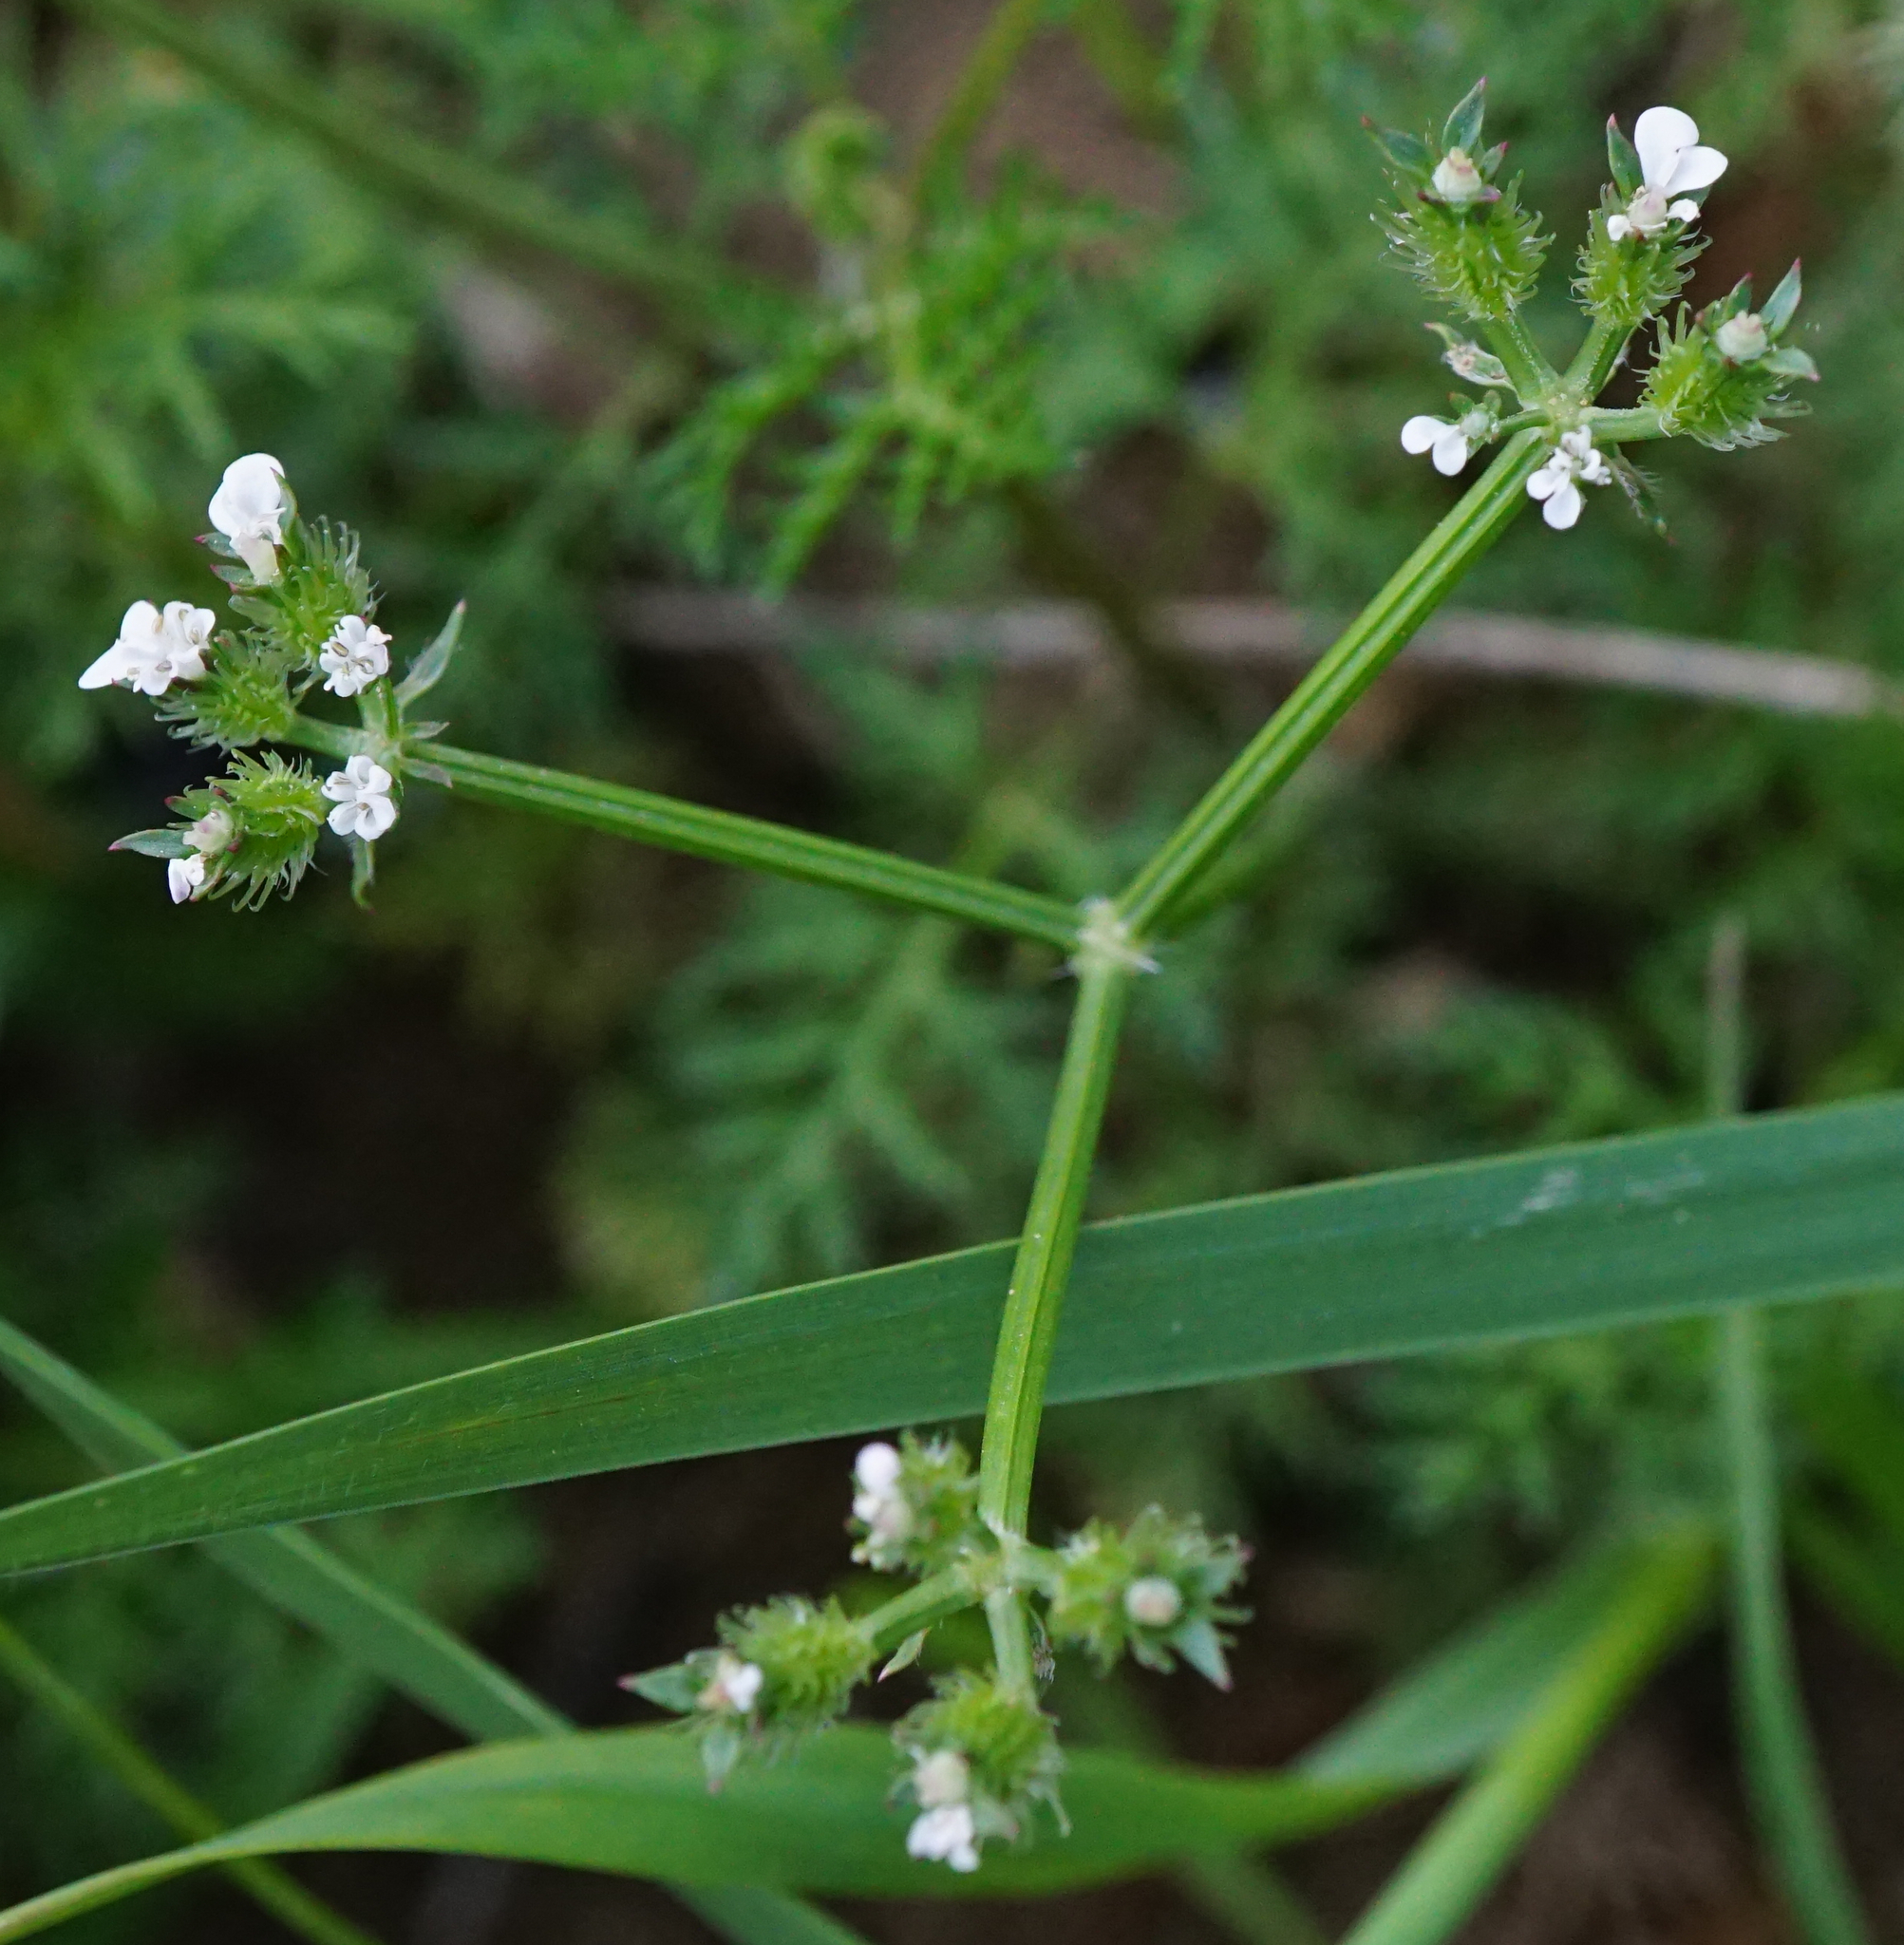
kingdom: Plantae
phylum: Tracheophyta
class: Magnoliopsida
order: Apiales
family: Apiaceae
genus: Caucalis
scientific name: Caucalis platycarpos
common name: Small bur-parsley
